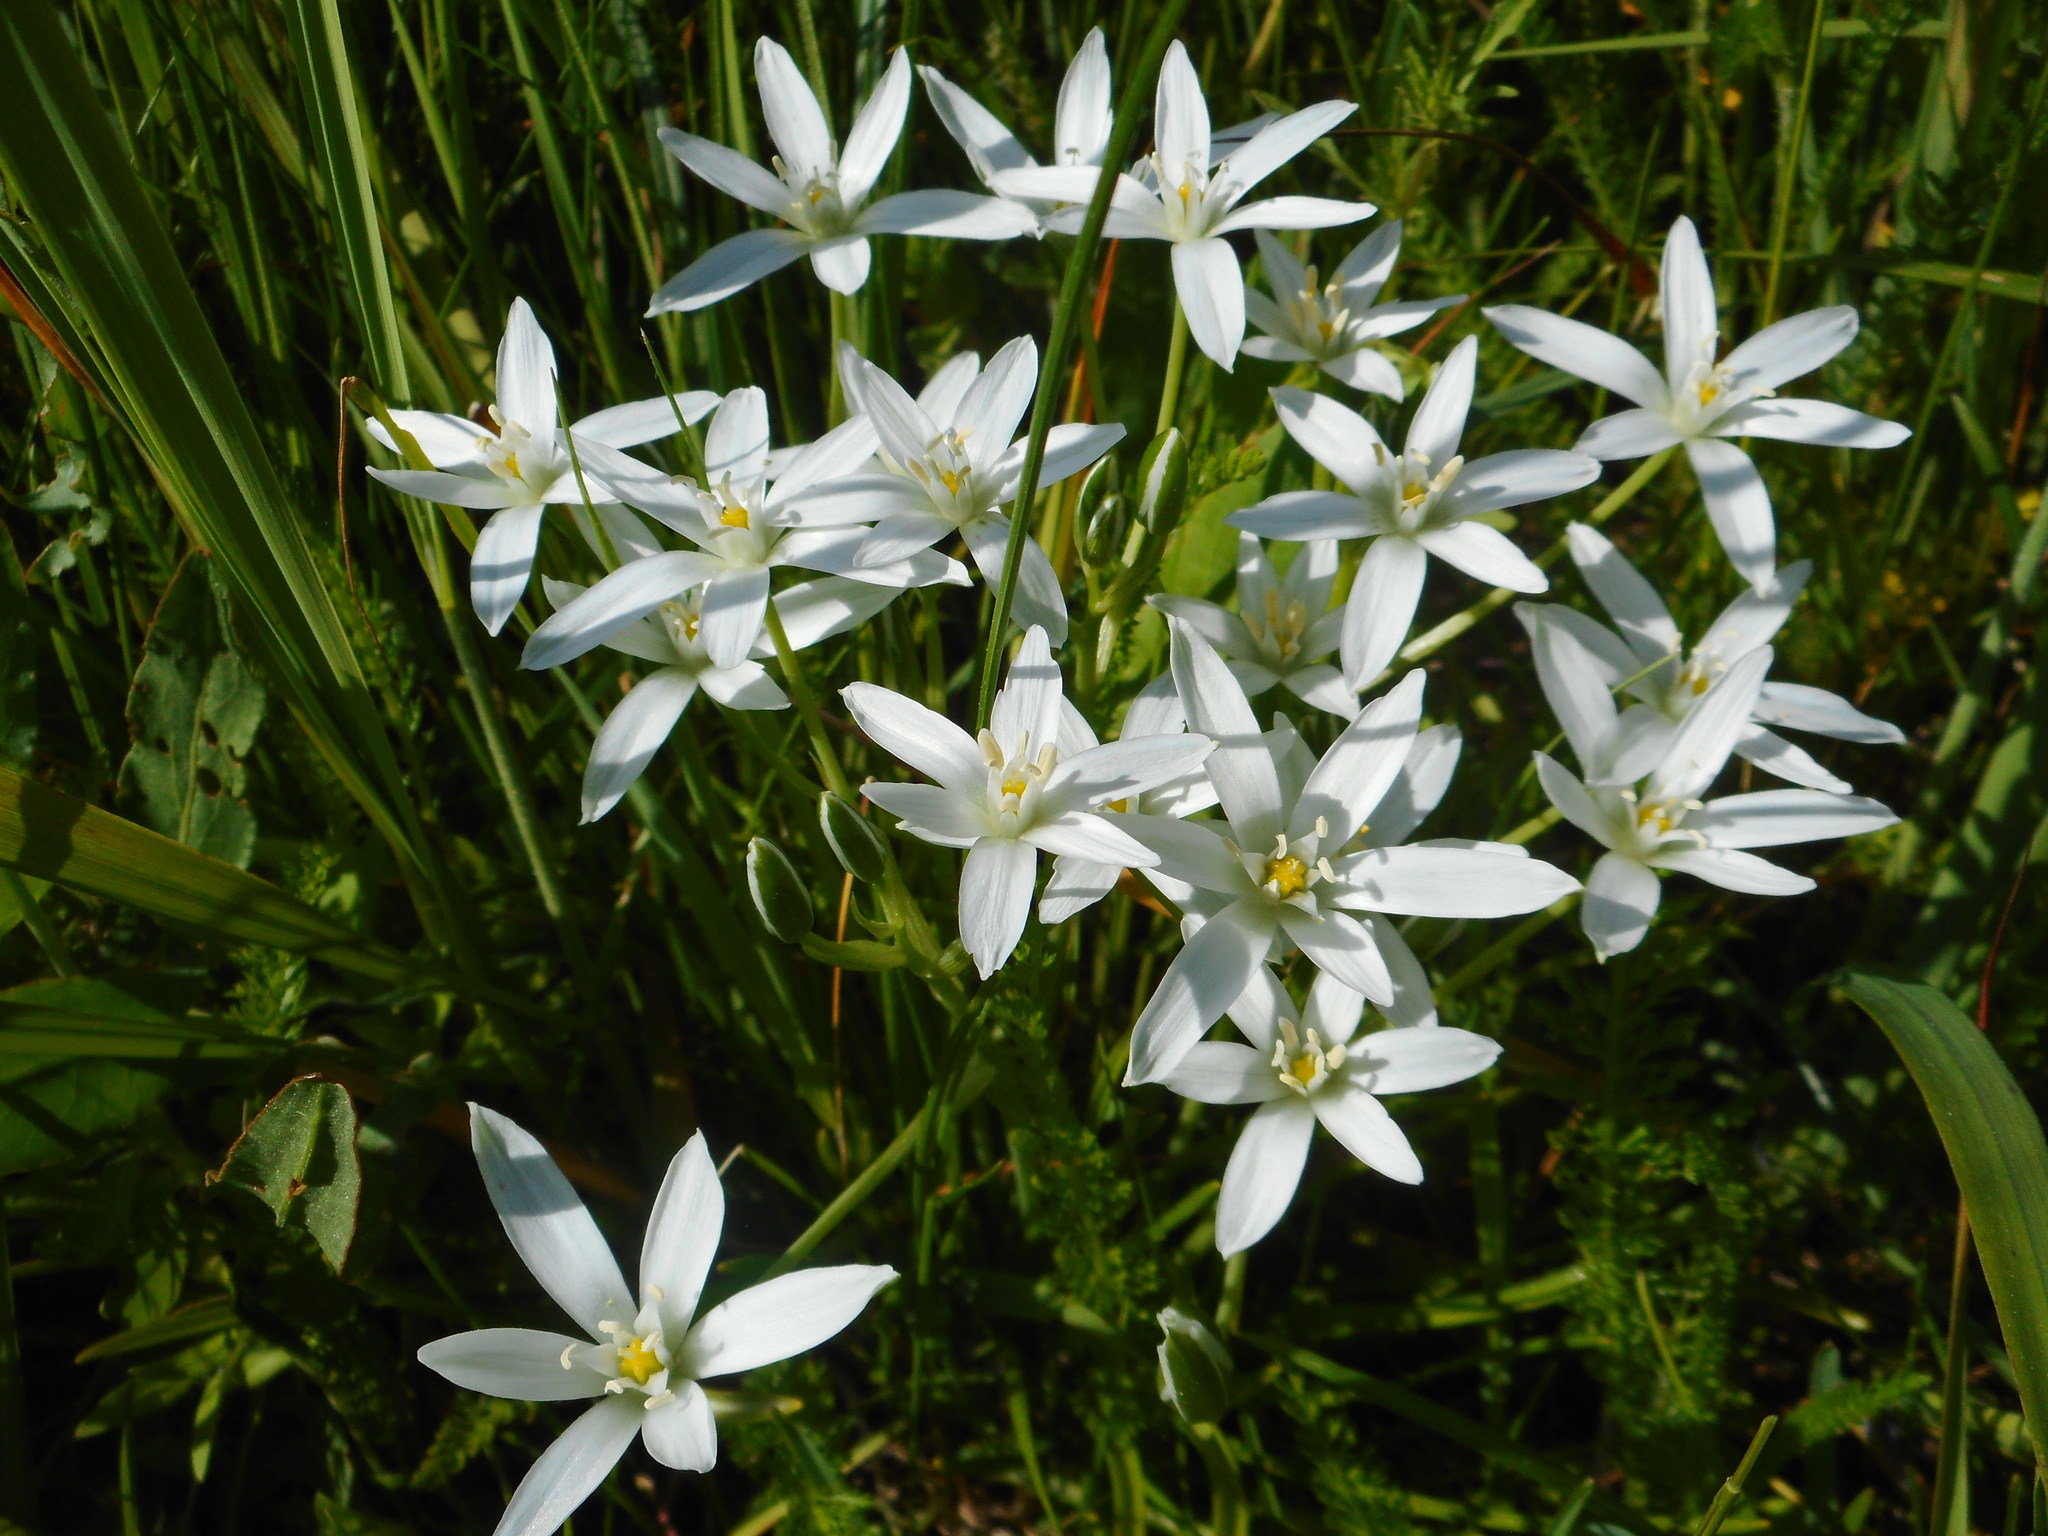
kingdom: Plantae
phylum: Tracheophyta
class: Liliopsida
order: Asparagales
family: Asparagaceae
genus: Ornithogalum
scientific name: Ornithogalum umbellatum
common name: Garden star-of-bethlehem
